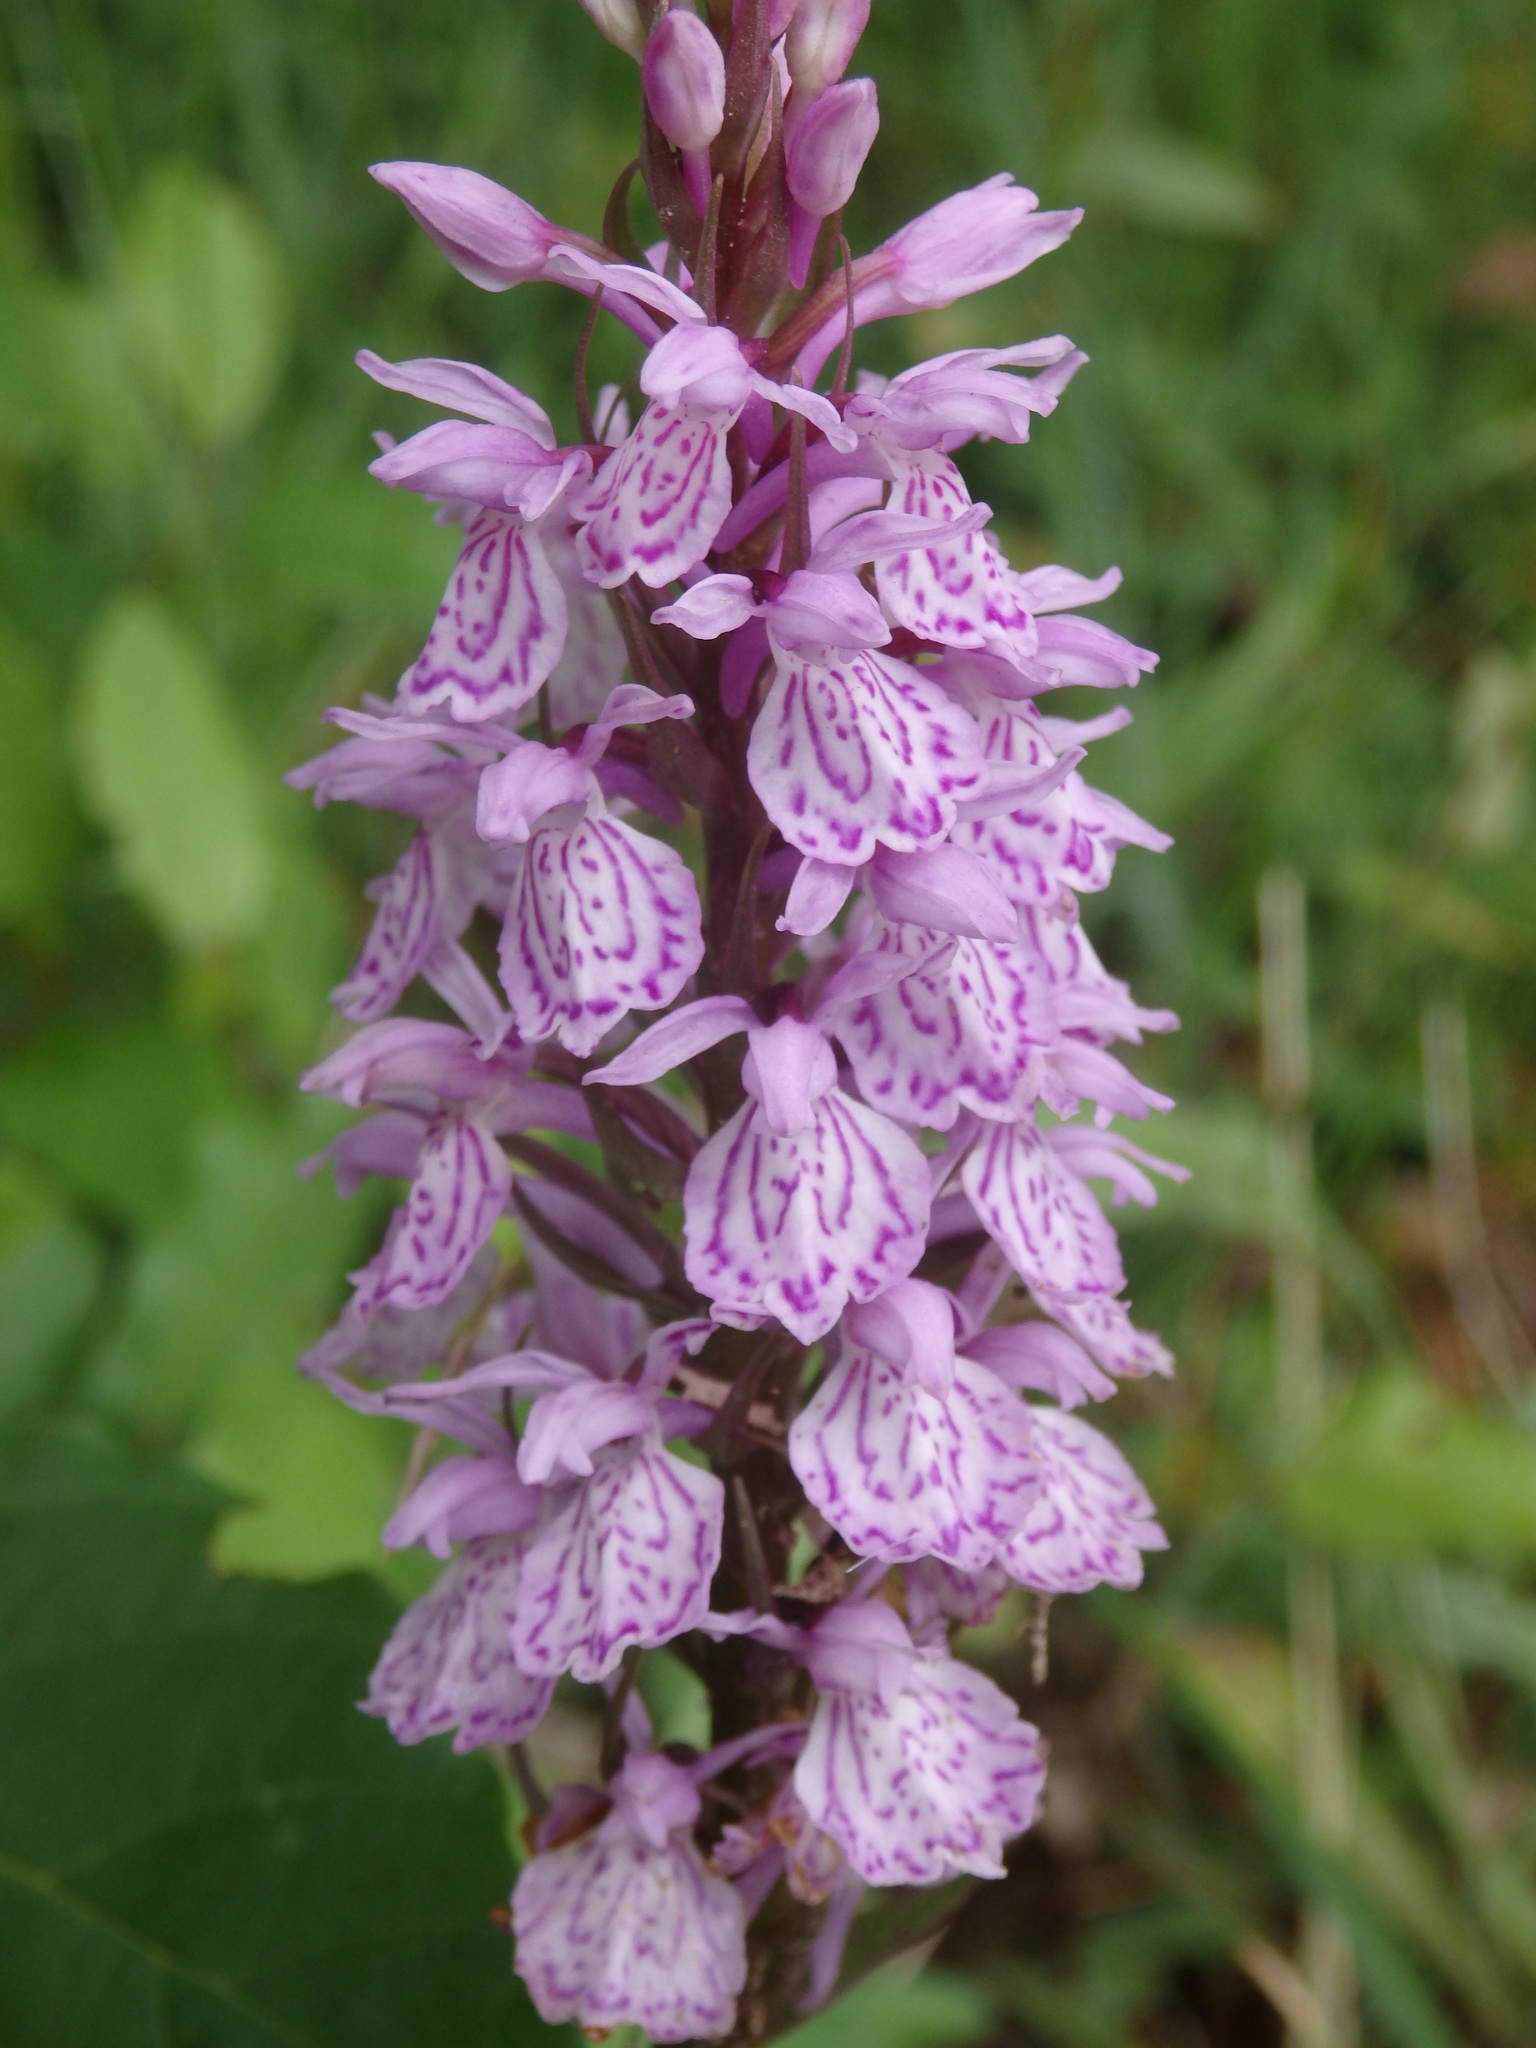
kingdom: Plantae
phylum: Tracheophyta
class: Liliopsida
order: Asparagales
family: Orchidaceae
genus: Dactylorhiza
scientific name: Dactylorhiza maculata
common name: Heath spotted-orchid
